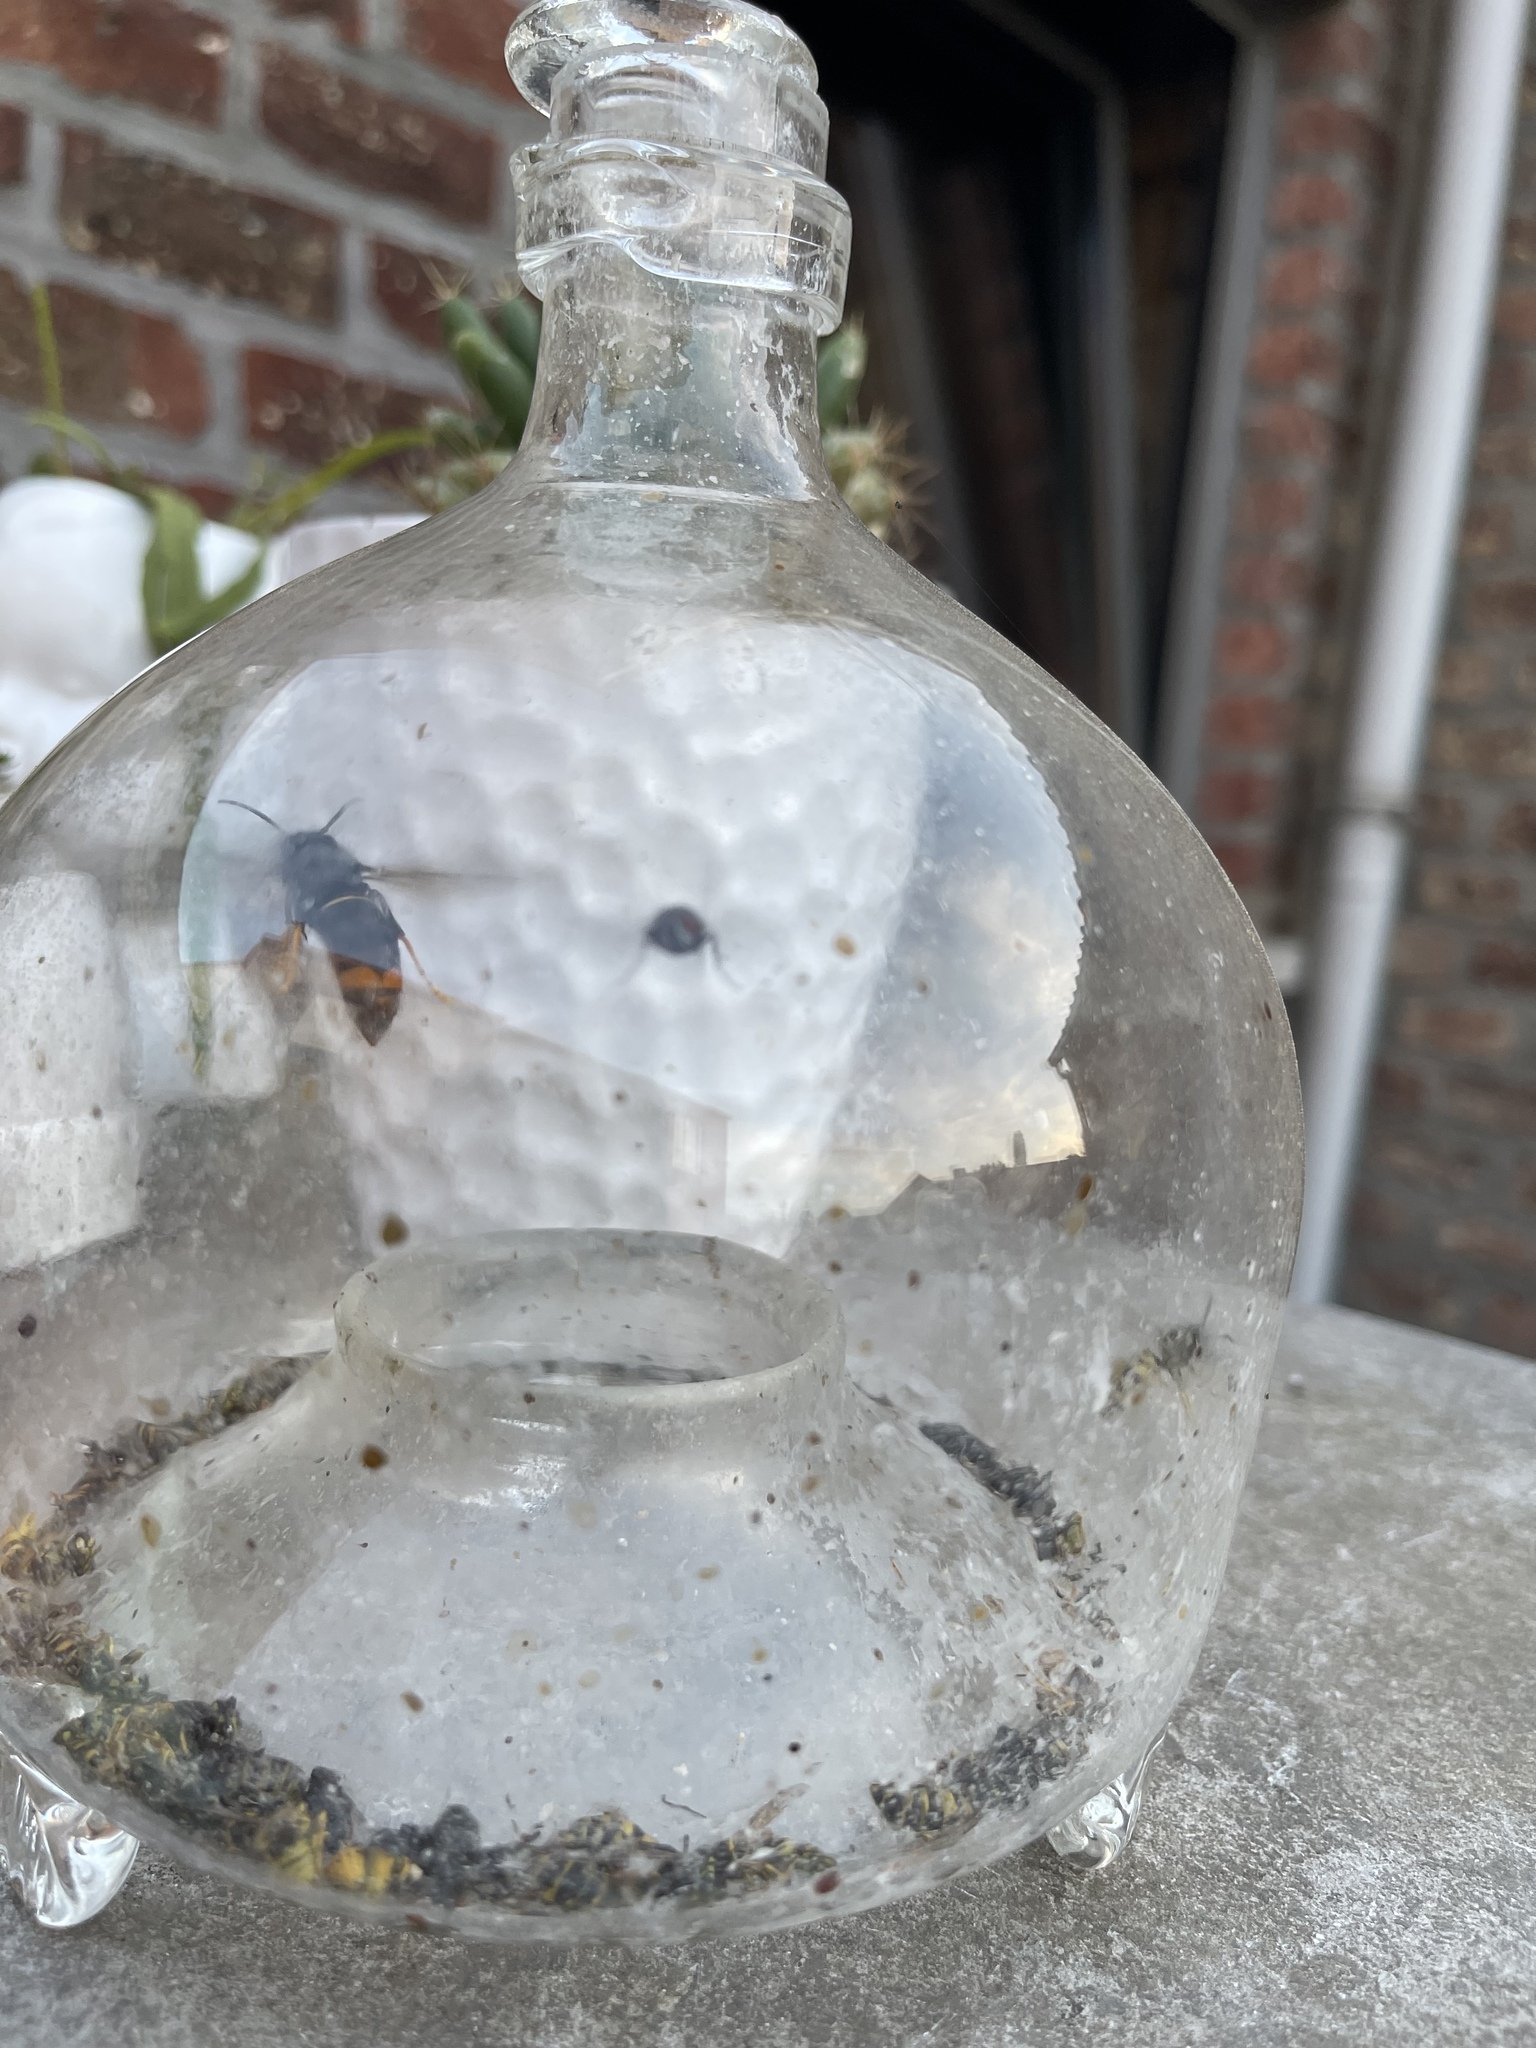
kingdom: Animalia
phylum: Arthropoda
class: Insecta
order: Hymenoptera
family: Vespidae
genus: Vespa
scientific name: Vespa velutina
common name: Asian hornet
